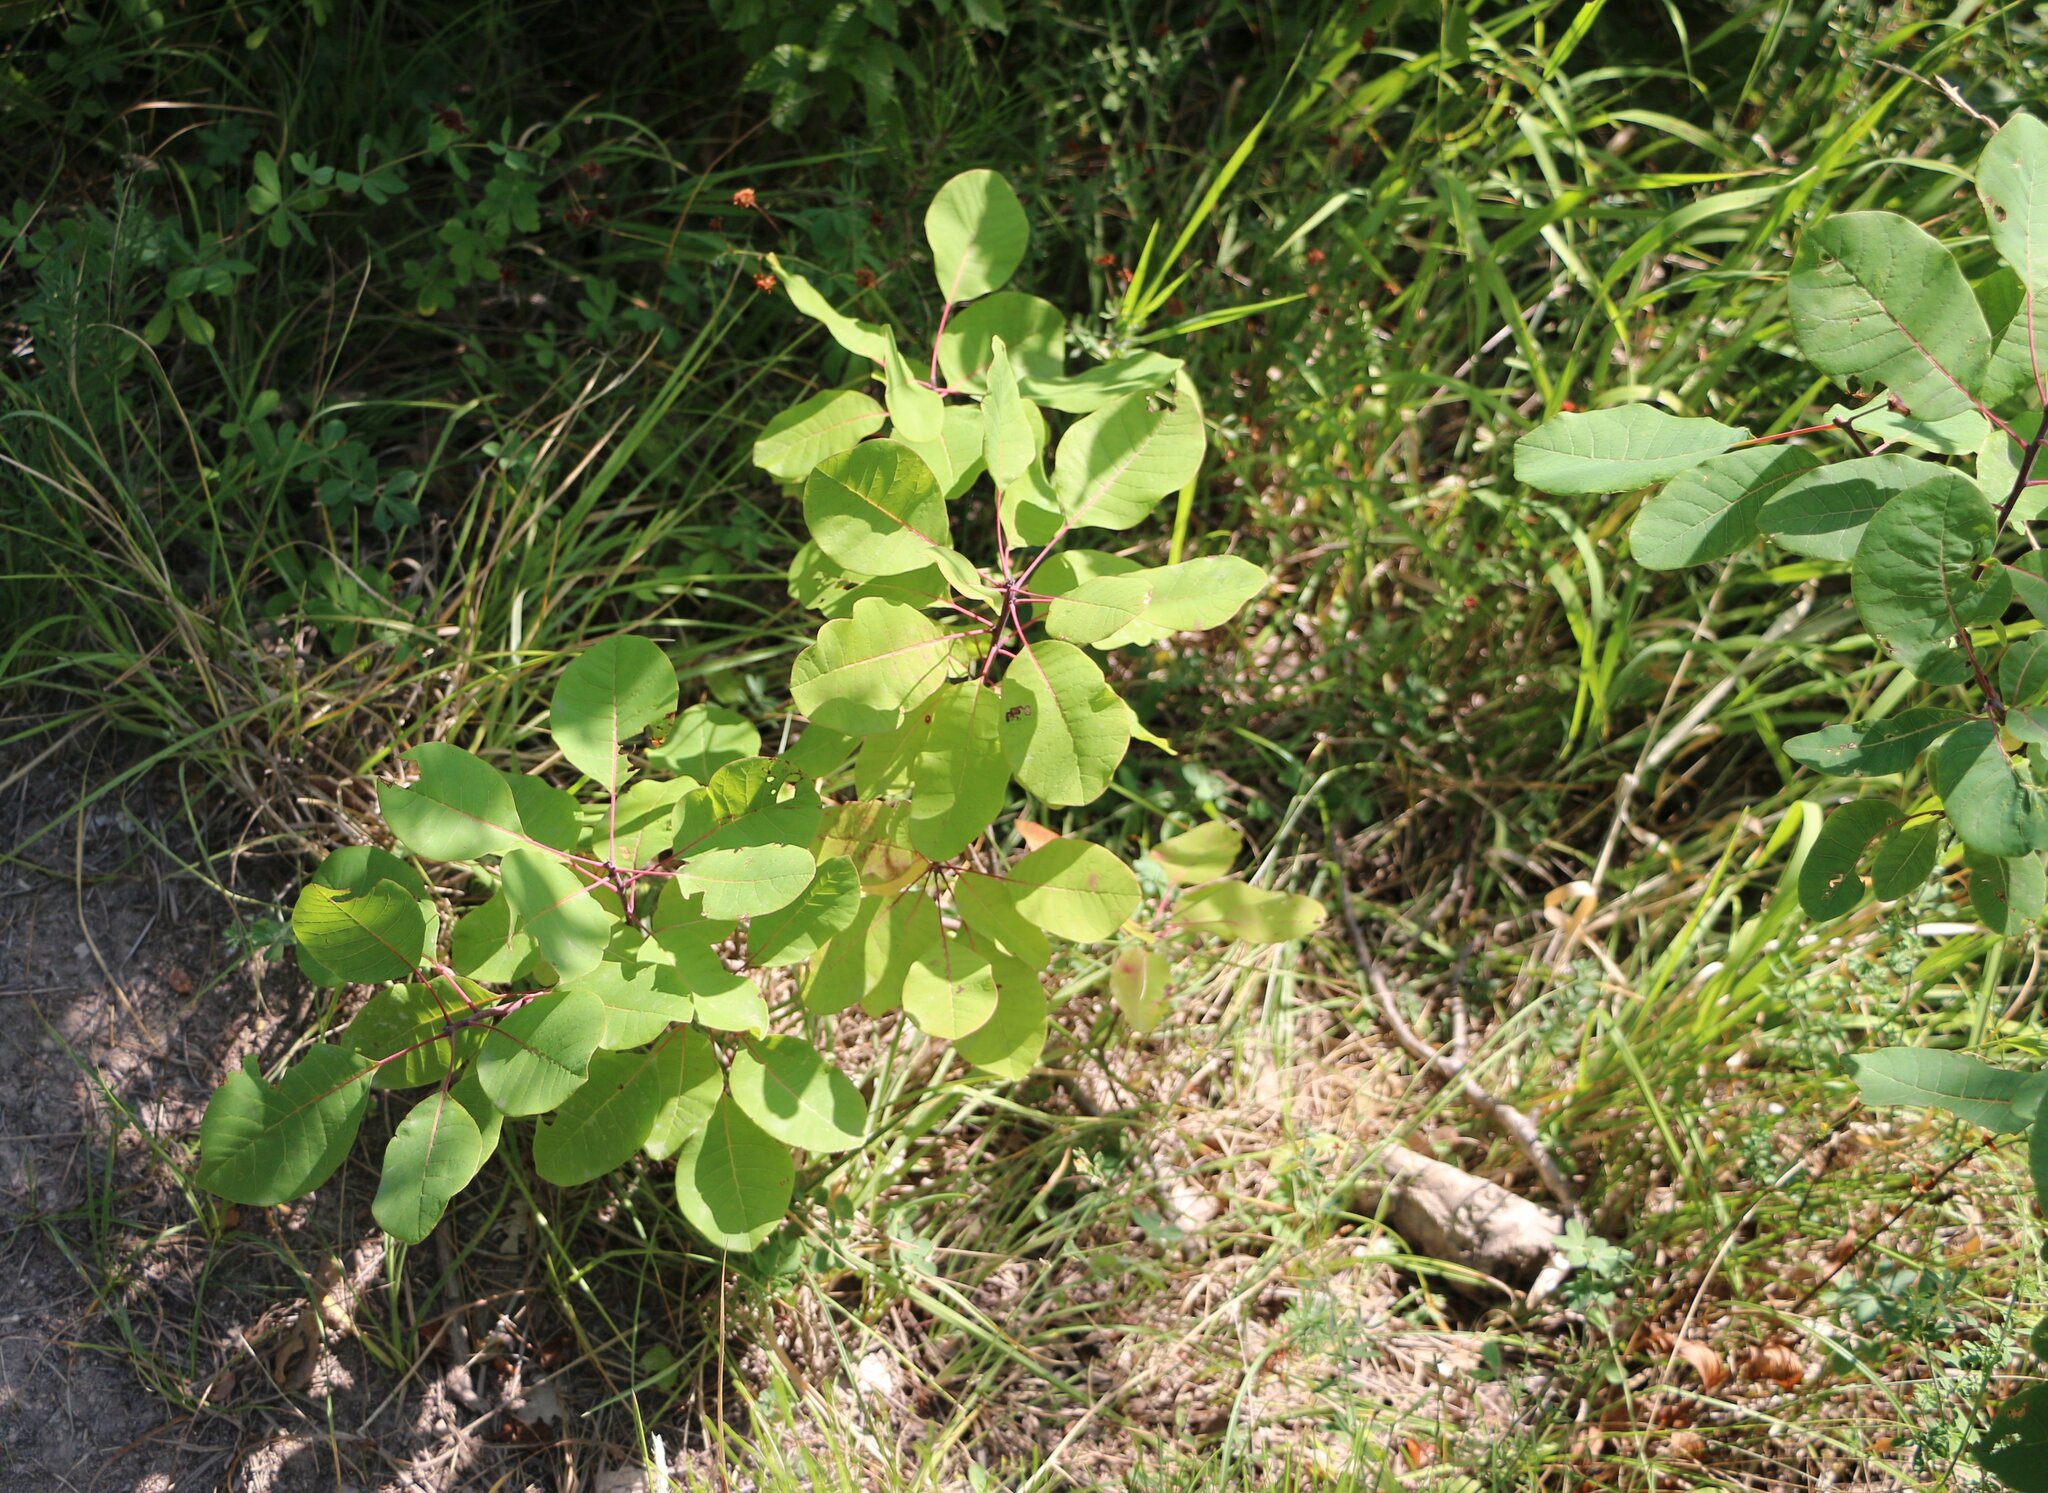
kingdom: Plantae
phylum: Tracheophyta
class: Magnoliopsida
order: Sapindales
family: Anacardiaceae
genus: Cotinus
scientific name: Cotinus coggygria
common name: Smoke-tree
